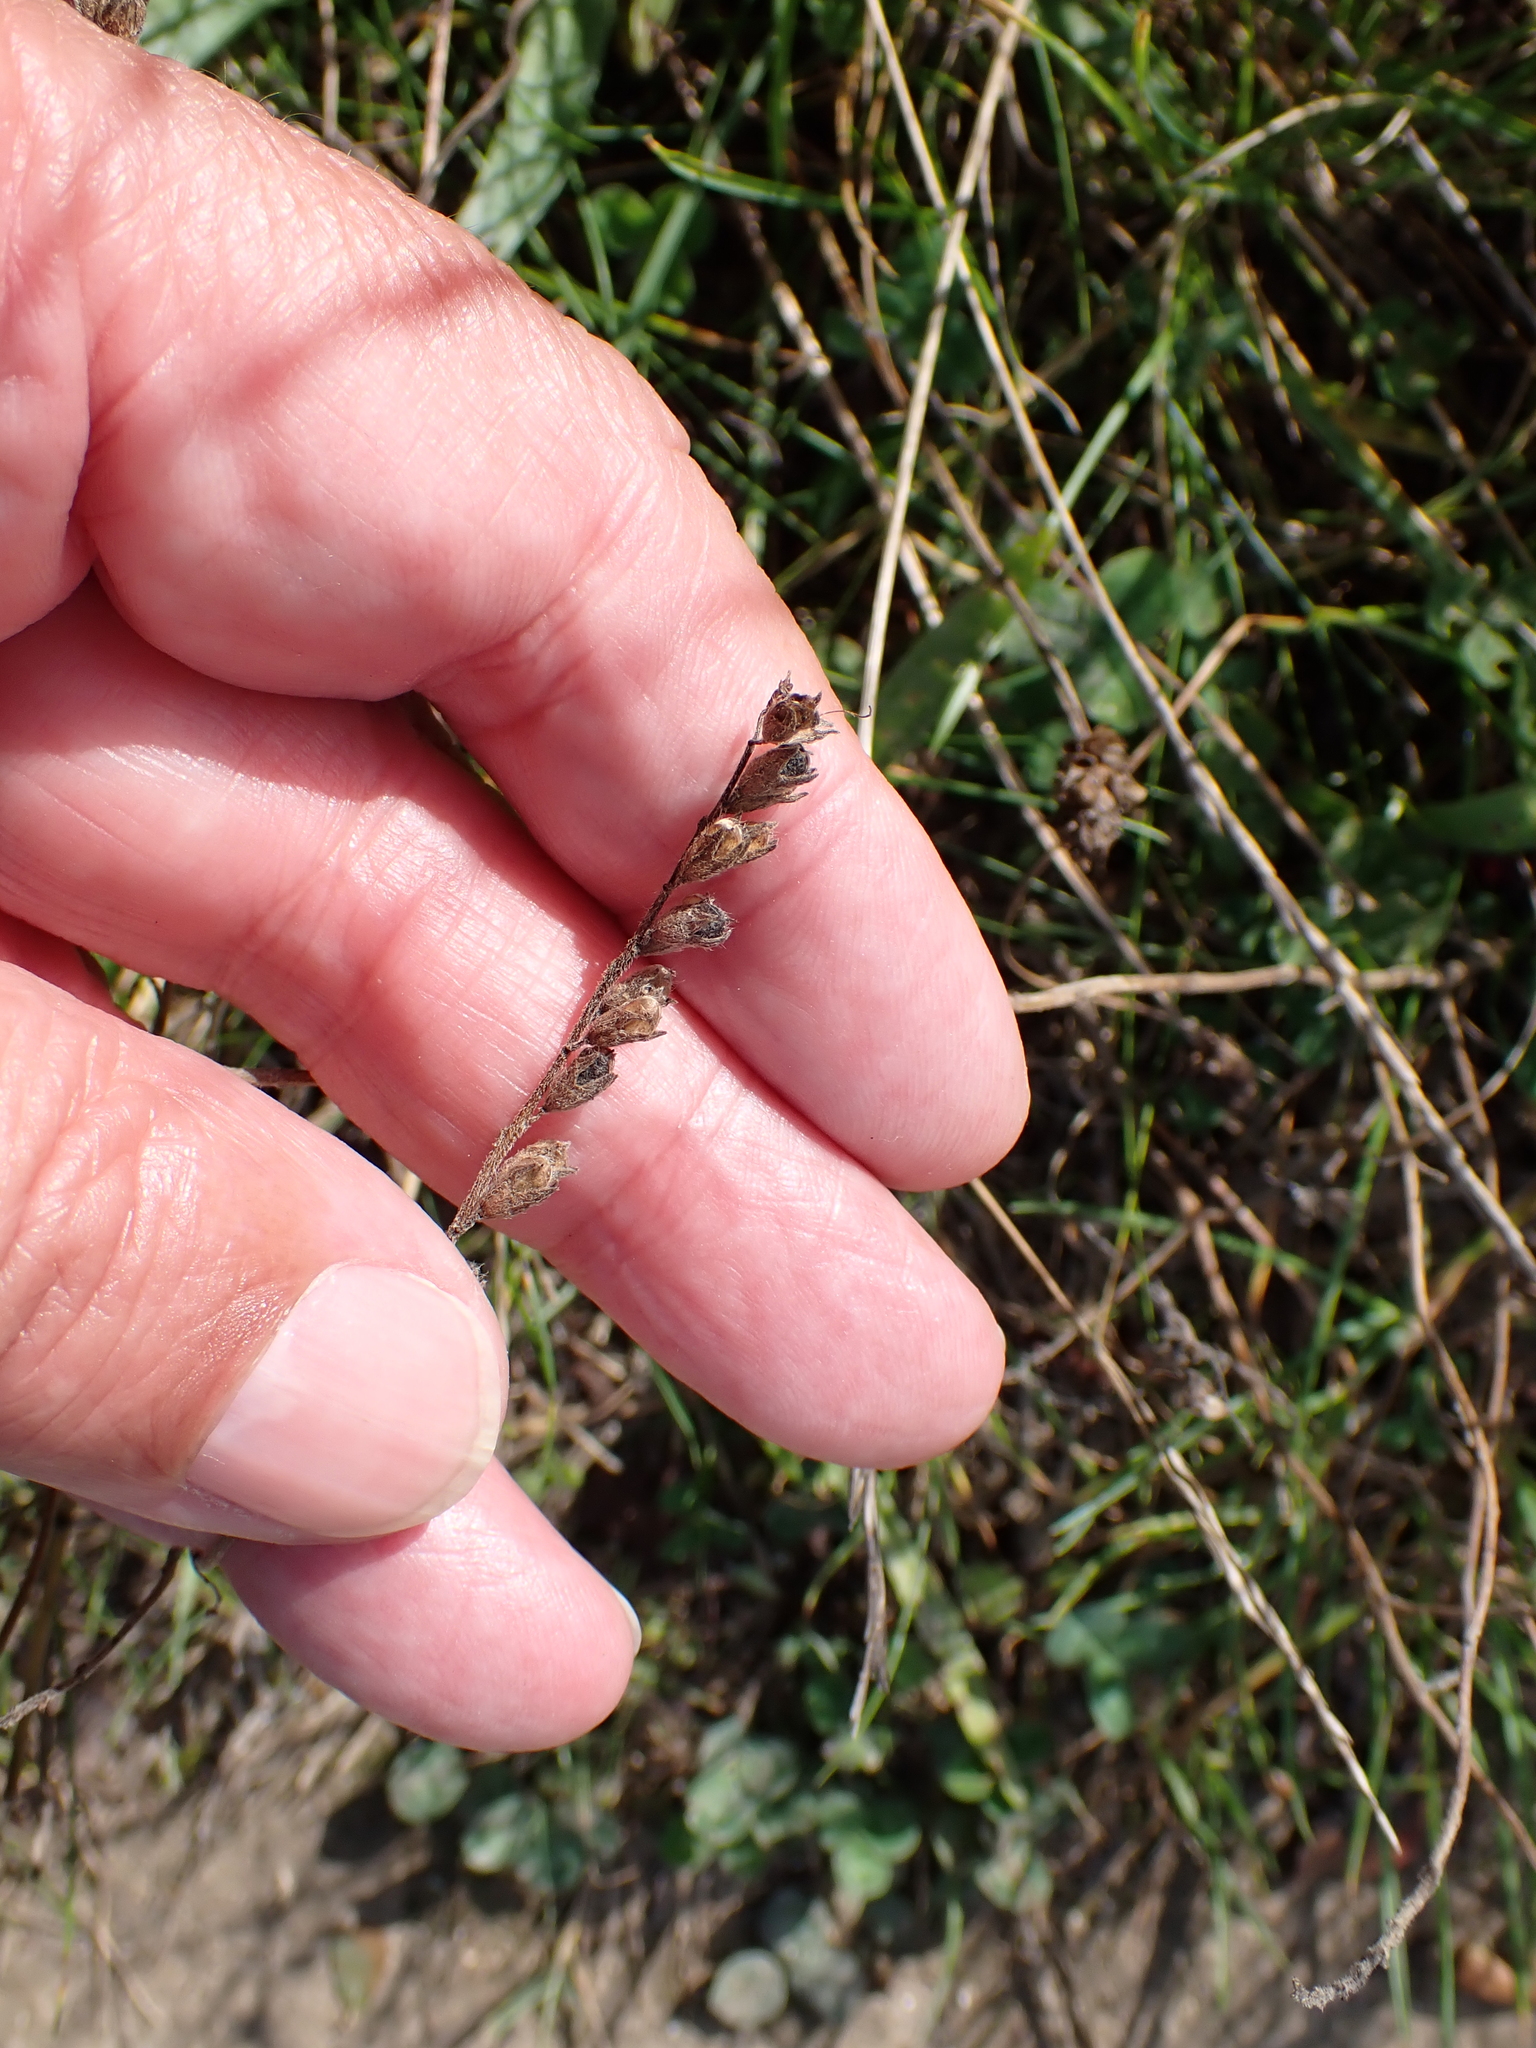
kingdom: Plantae
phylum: Tracheophyta
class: Magnoliopsida
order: Lamiales
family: Orobanchaceae
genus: Odontites
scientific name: Odontites vulgaris
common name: Broomrape
